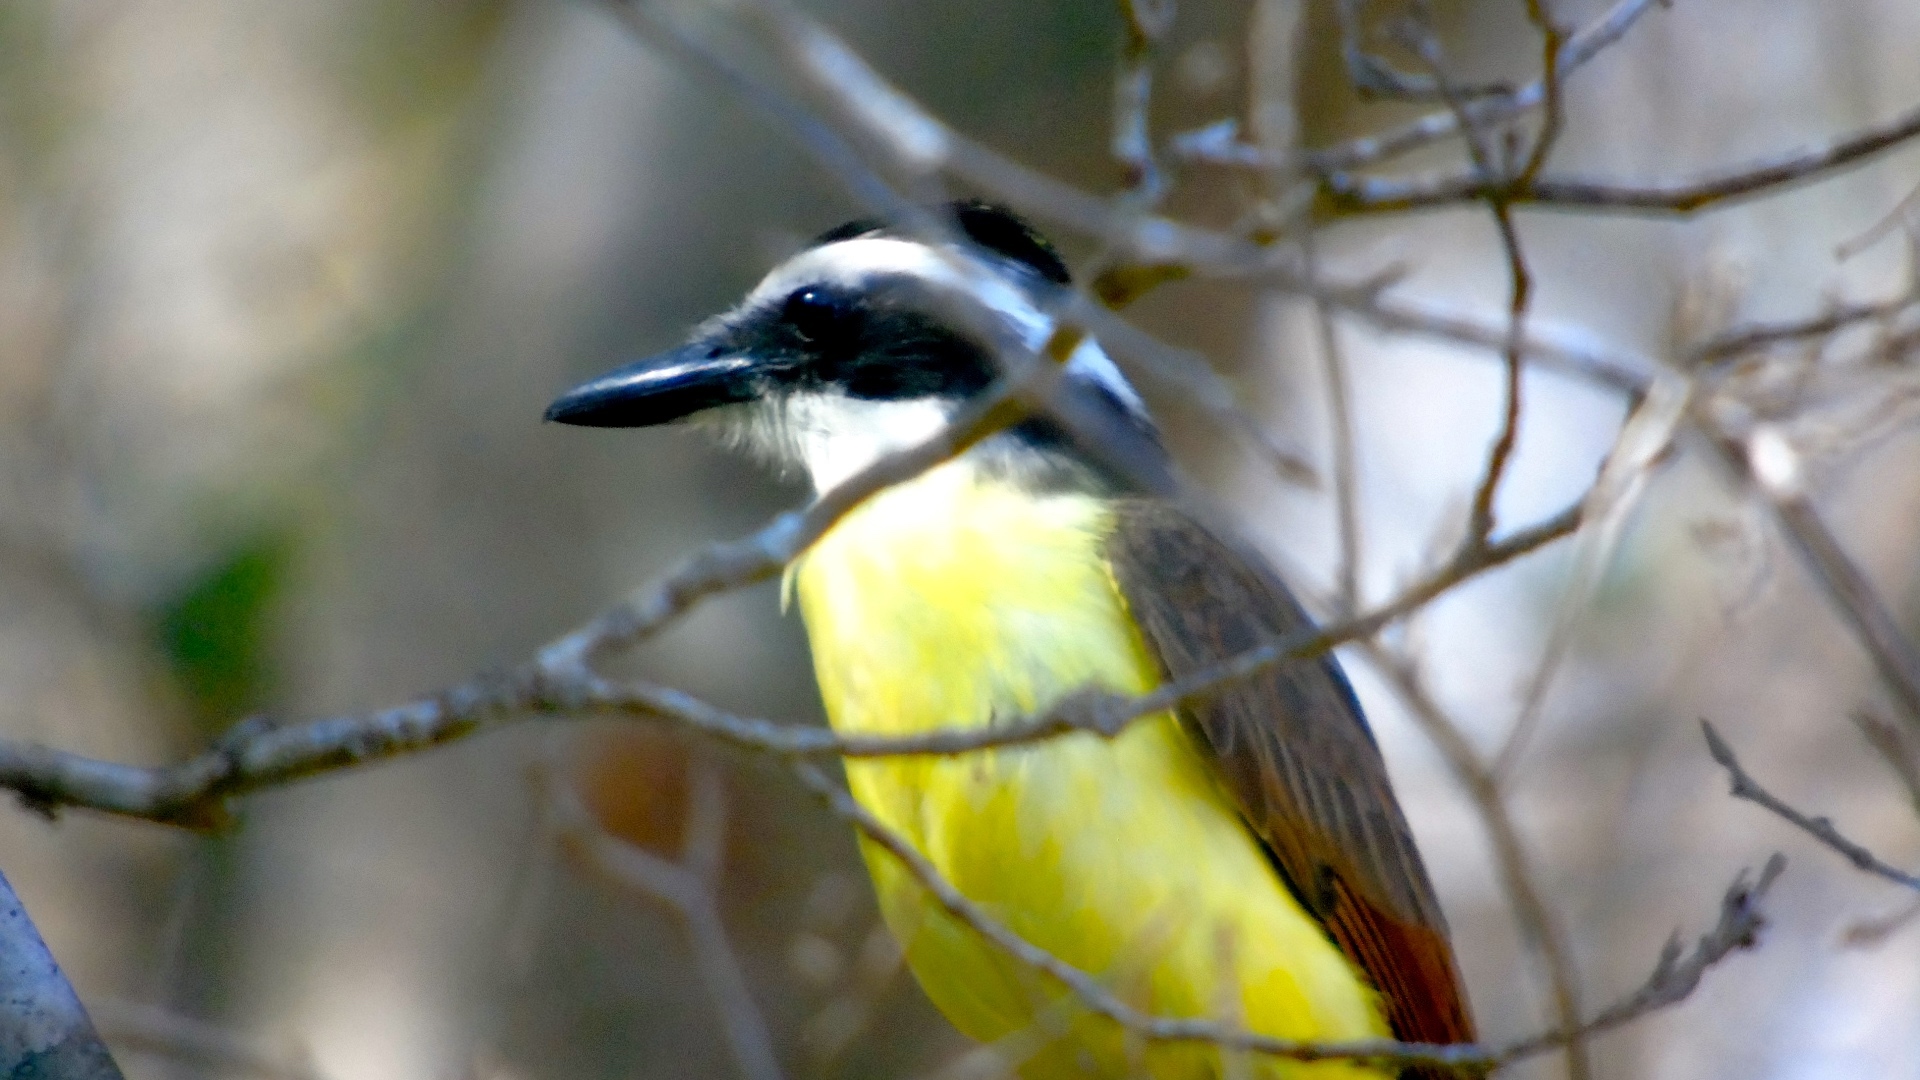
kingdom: Animalia
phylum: Chordata
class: Aves
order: Passeriformes
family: Tyrannidae
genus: Pitangus
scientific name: Pitangus sulphuratus
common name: Great kiskadee
